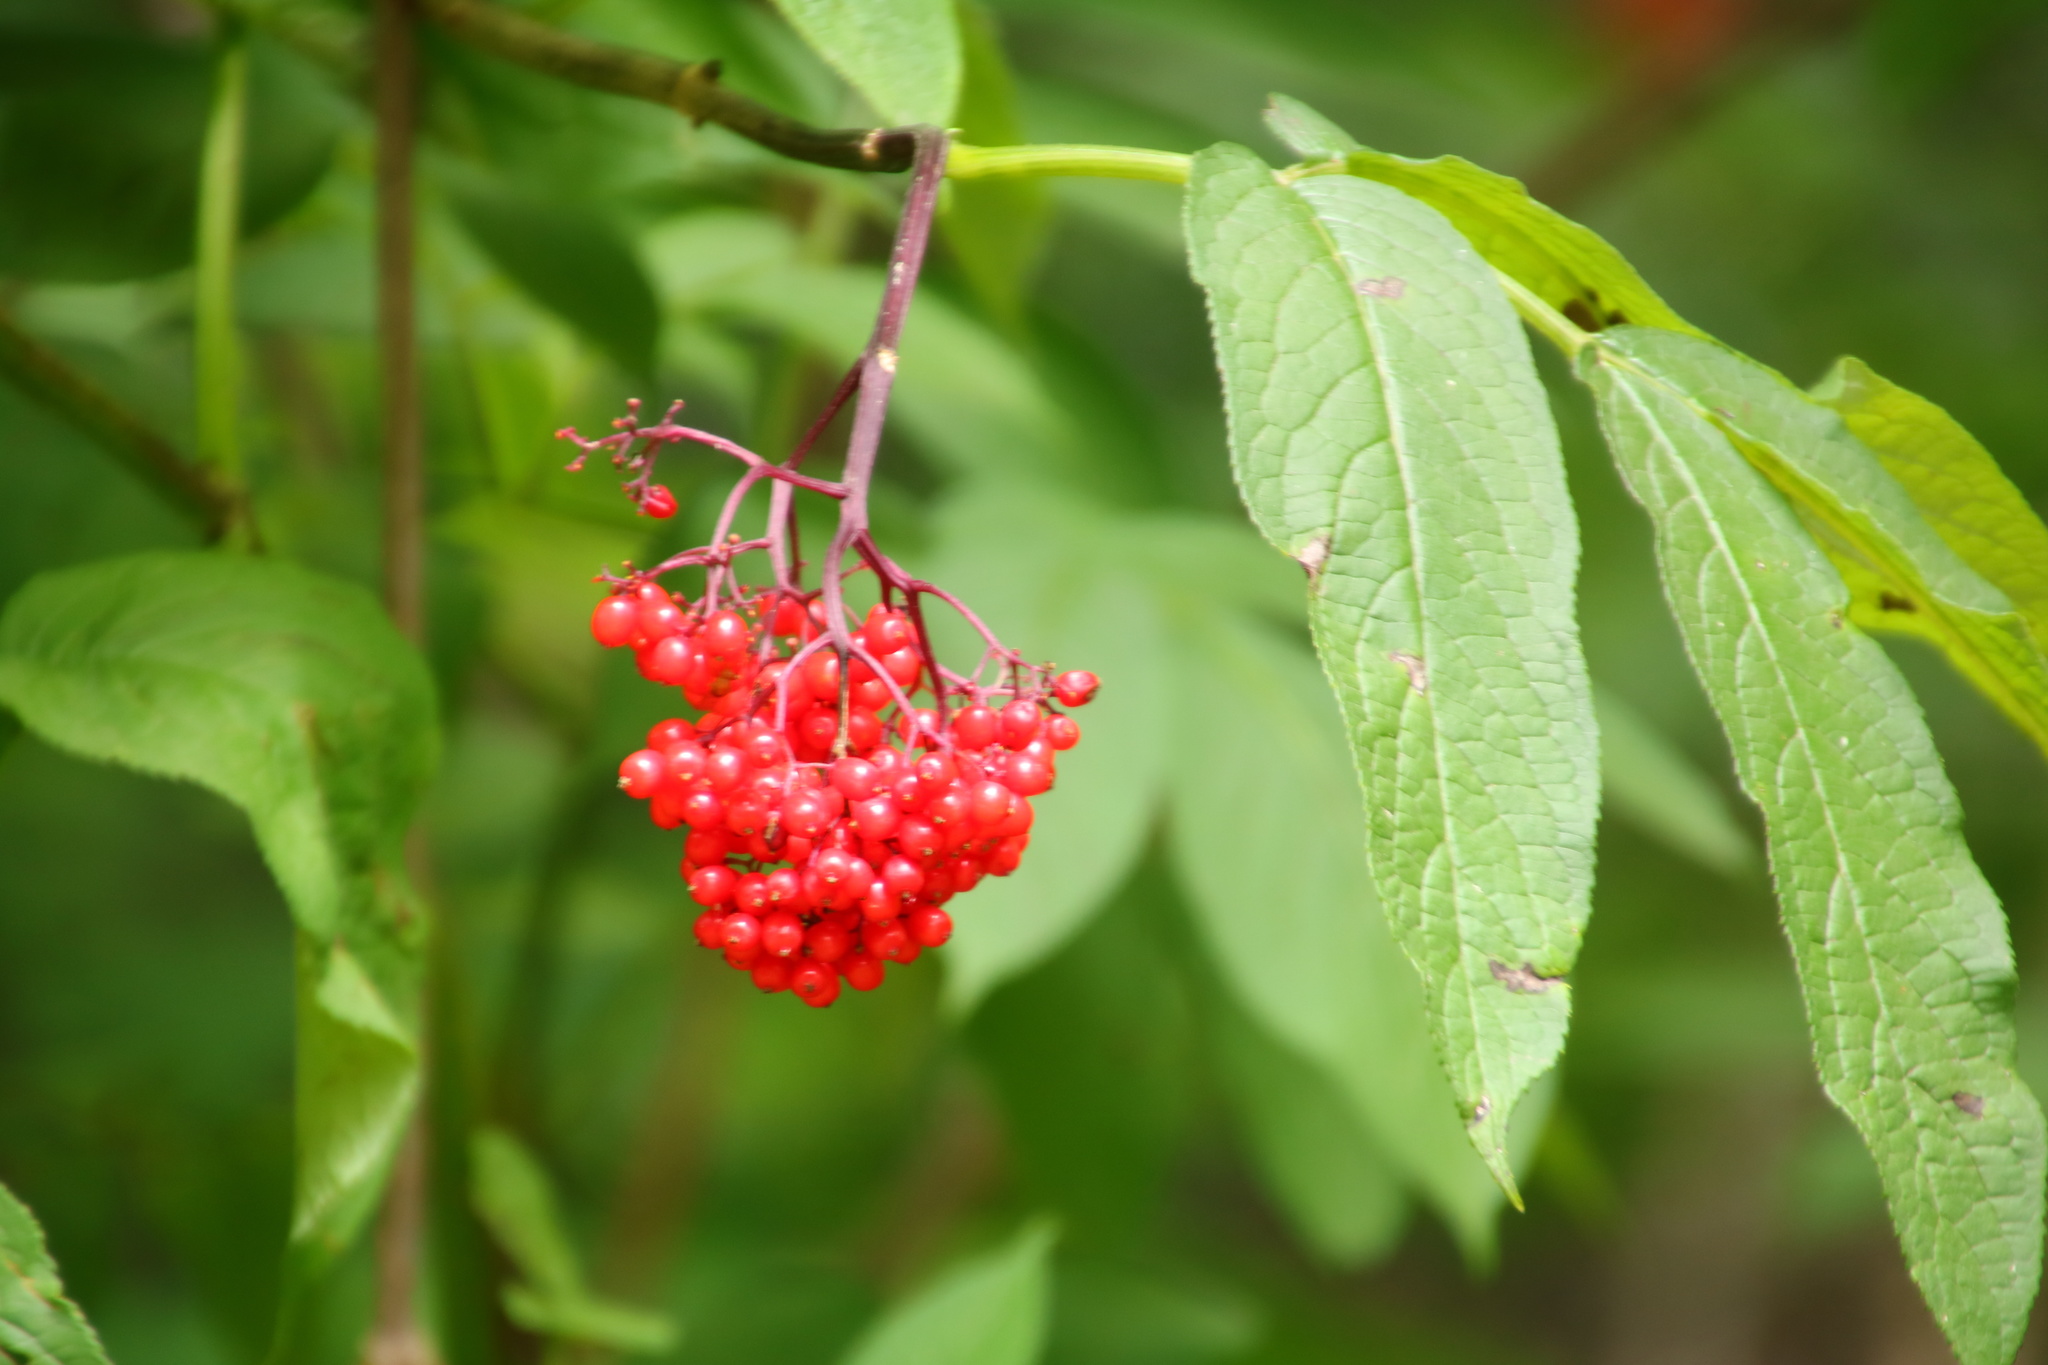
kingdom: Plantae
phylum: Tracheophyta
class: Magnoliopsida
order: Dipsacales
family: Viburnaceae
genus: Sambucus
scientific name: Sambucus racemosa
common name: Red-berried elder
